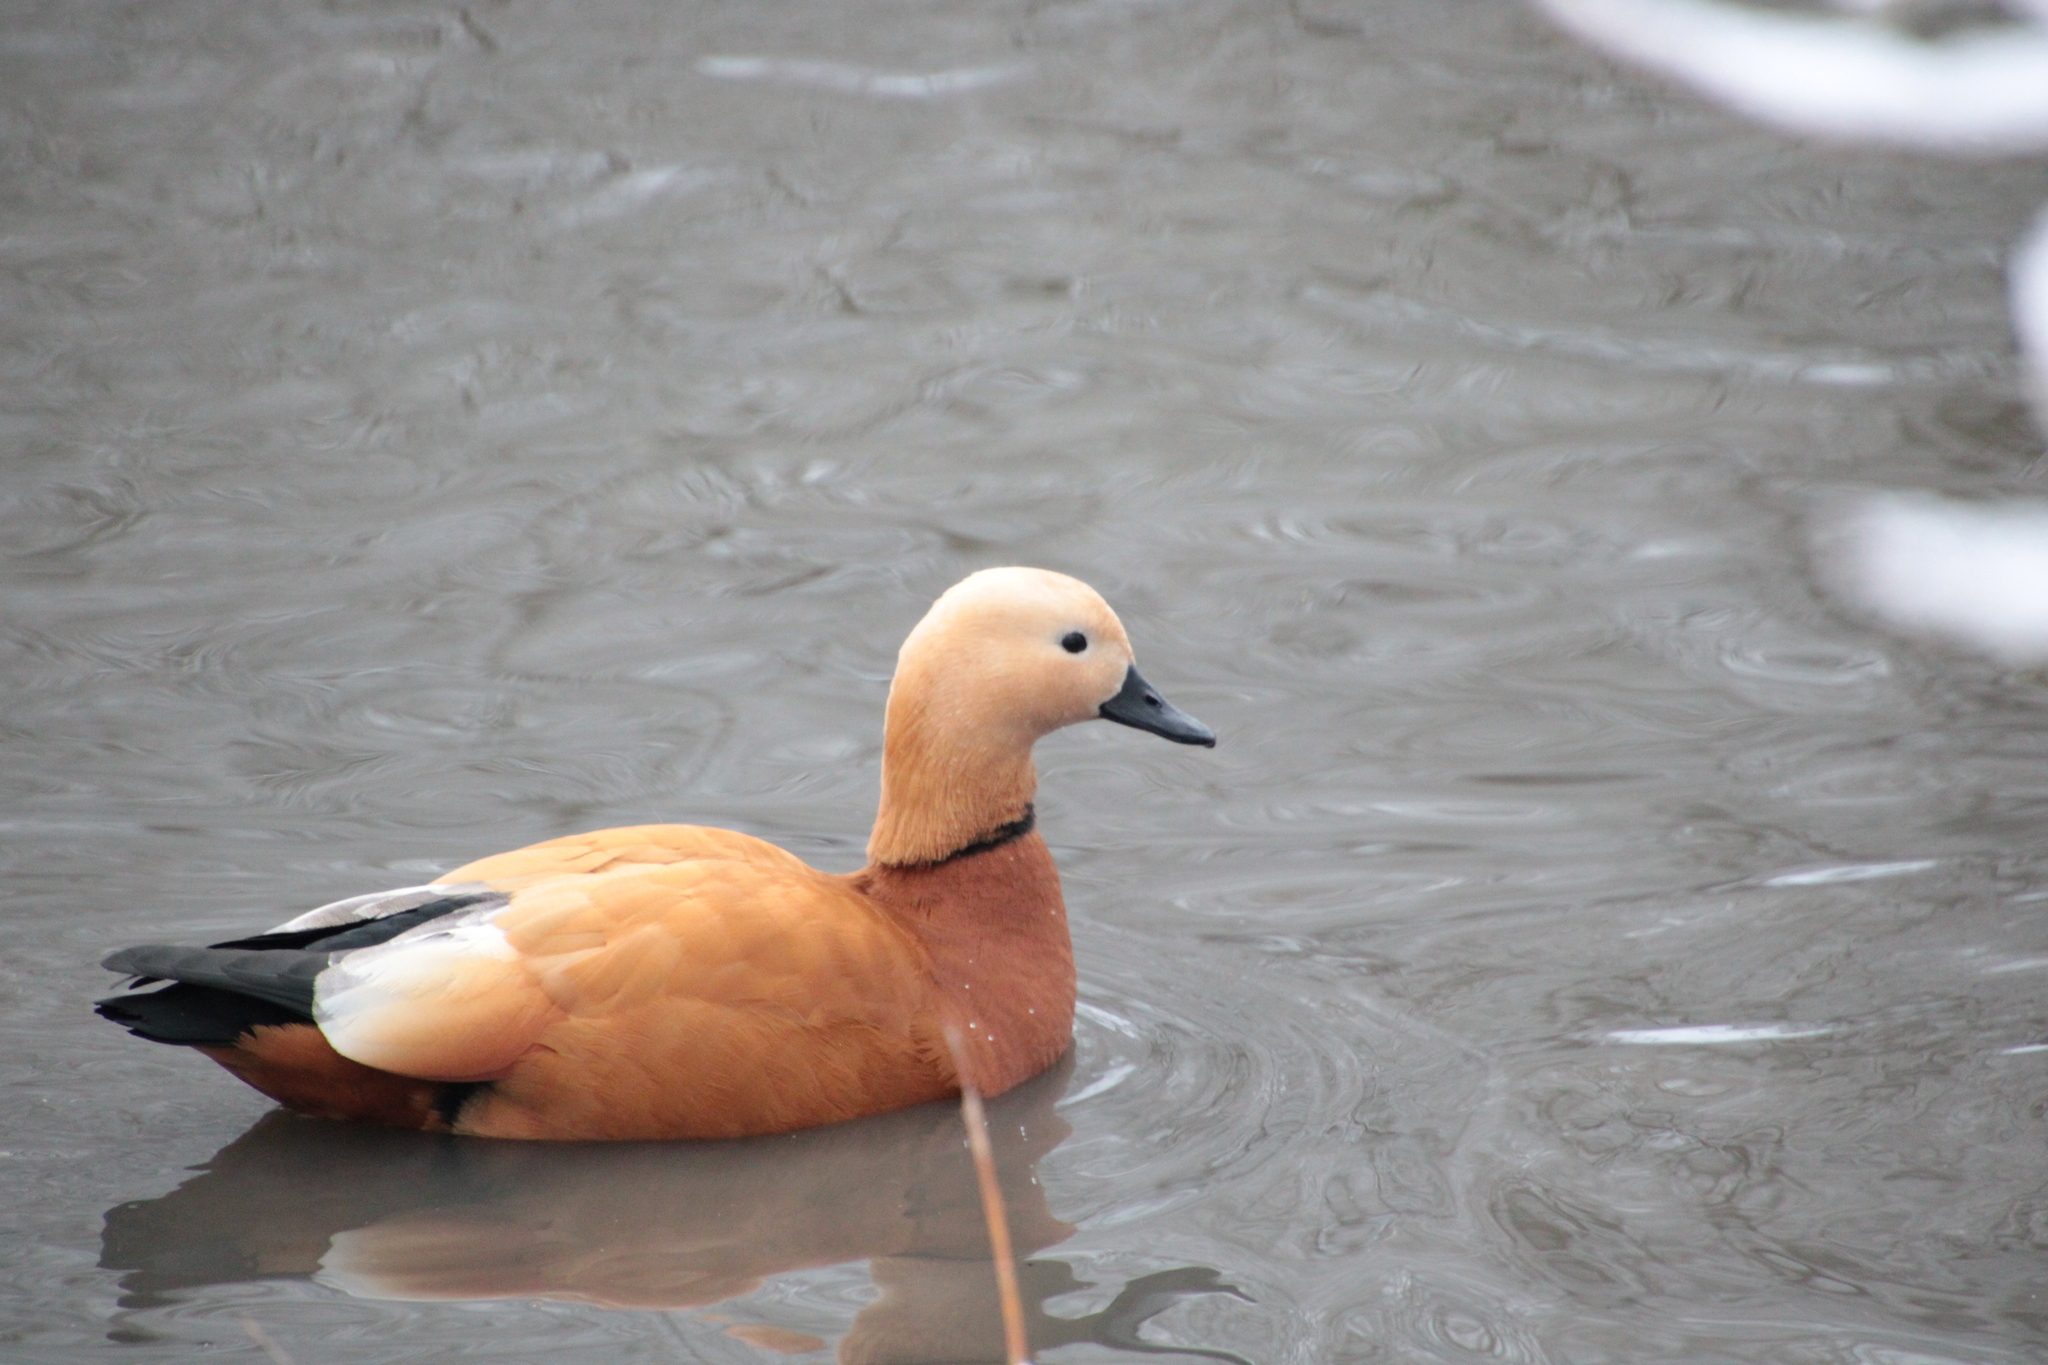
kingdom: Animalia
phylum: Chordata
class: Aves
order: Anseriformes
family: Anatidae
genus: Tadorna
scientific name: Tadorna ferruginea
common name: Ruddy shelduck
